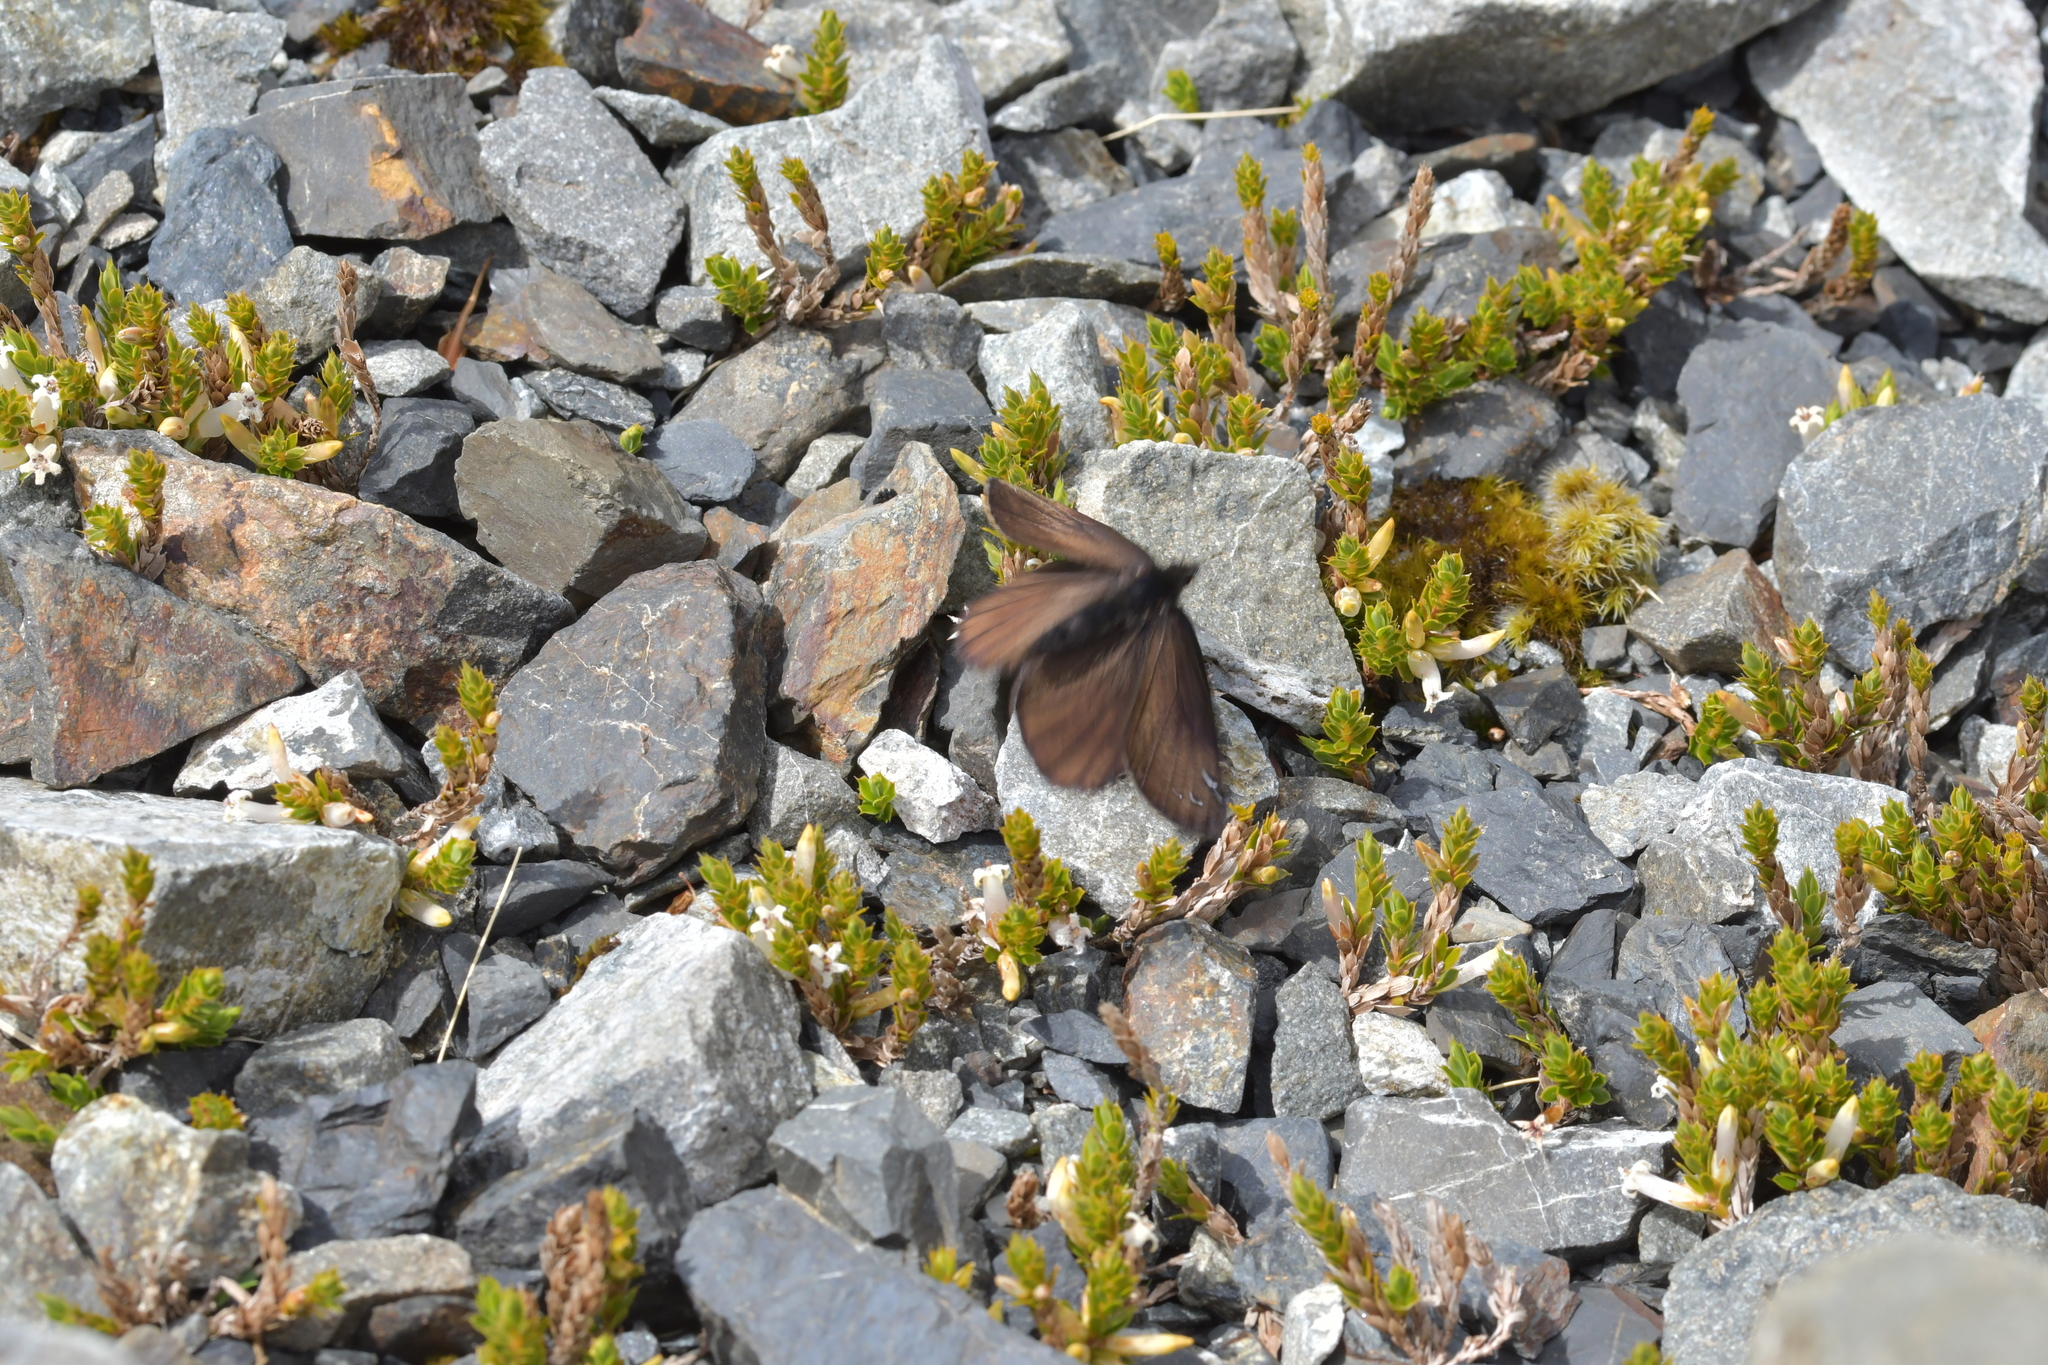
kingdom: Animalia
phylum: Arthropoda
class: Insecta
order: Lepidoptera
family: Nymphalidae
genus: Erebia
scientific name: Erebia Percnodaimon merula
